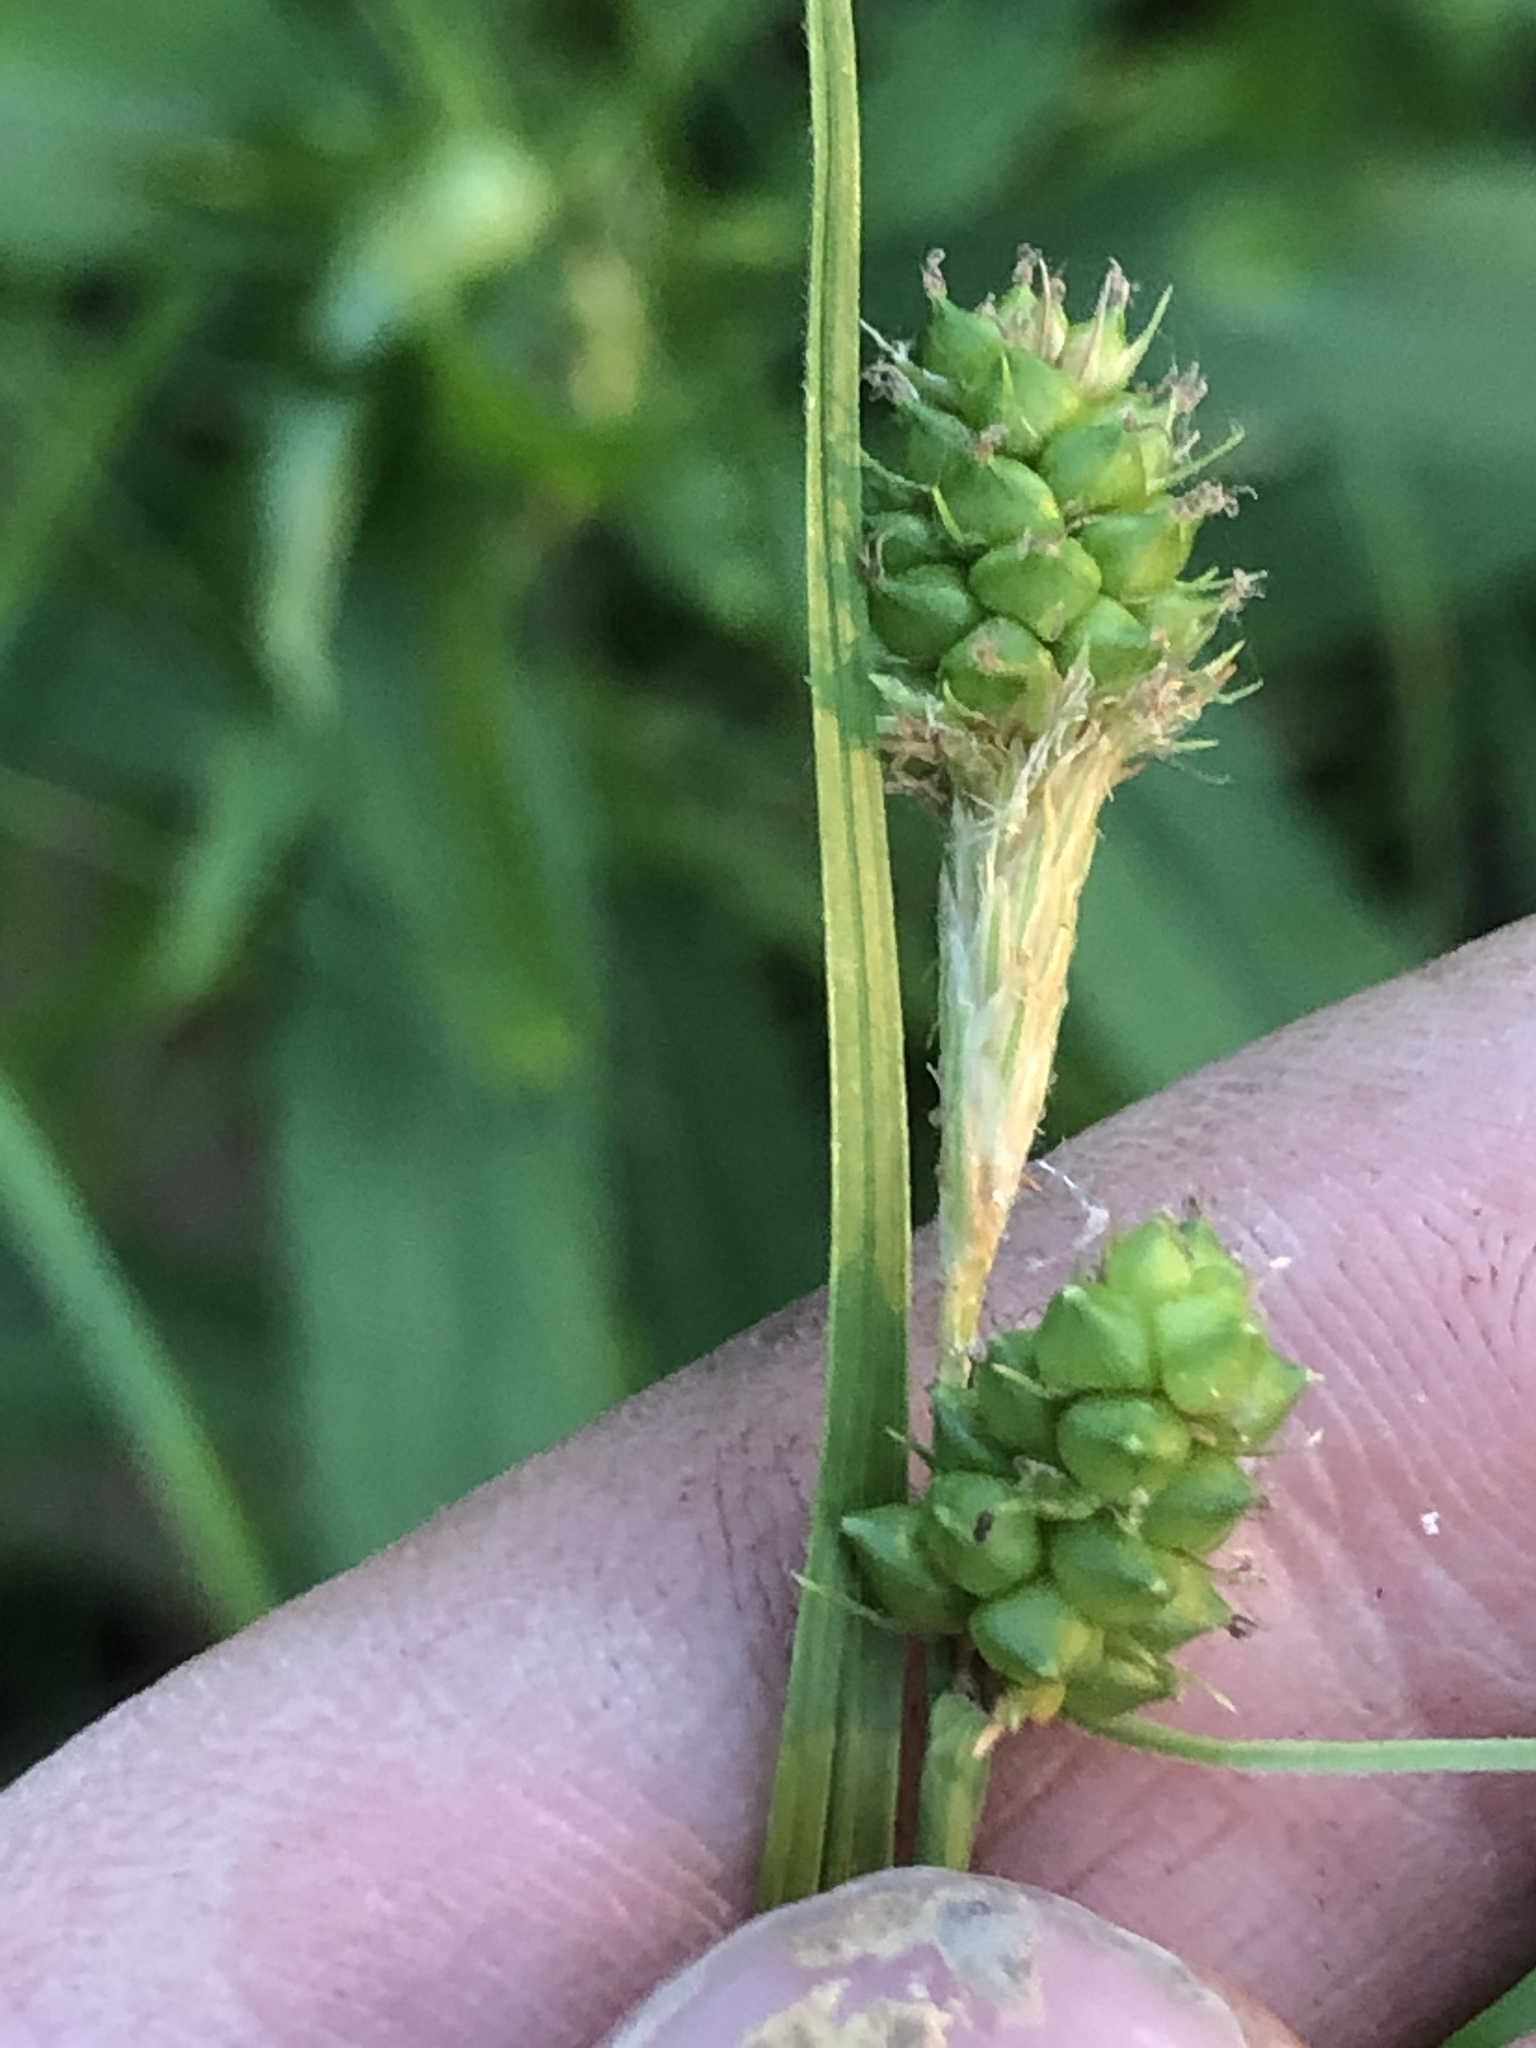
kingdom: Plantae
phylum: Tracheophyta
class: Liliopsida
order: Poales
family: Cyperaceae
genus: Carex
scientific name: Carex bushii
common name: Bush's sedge
